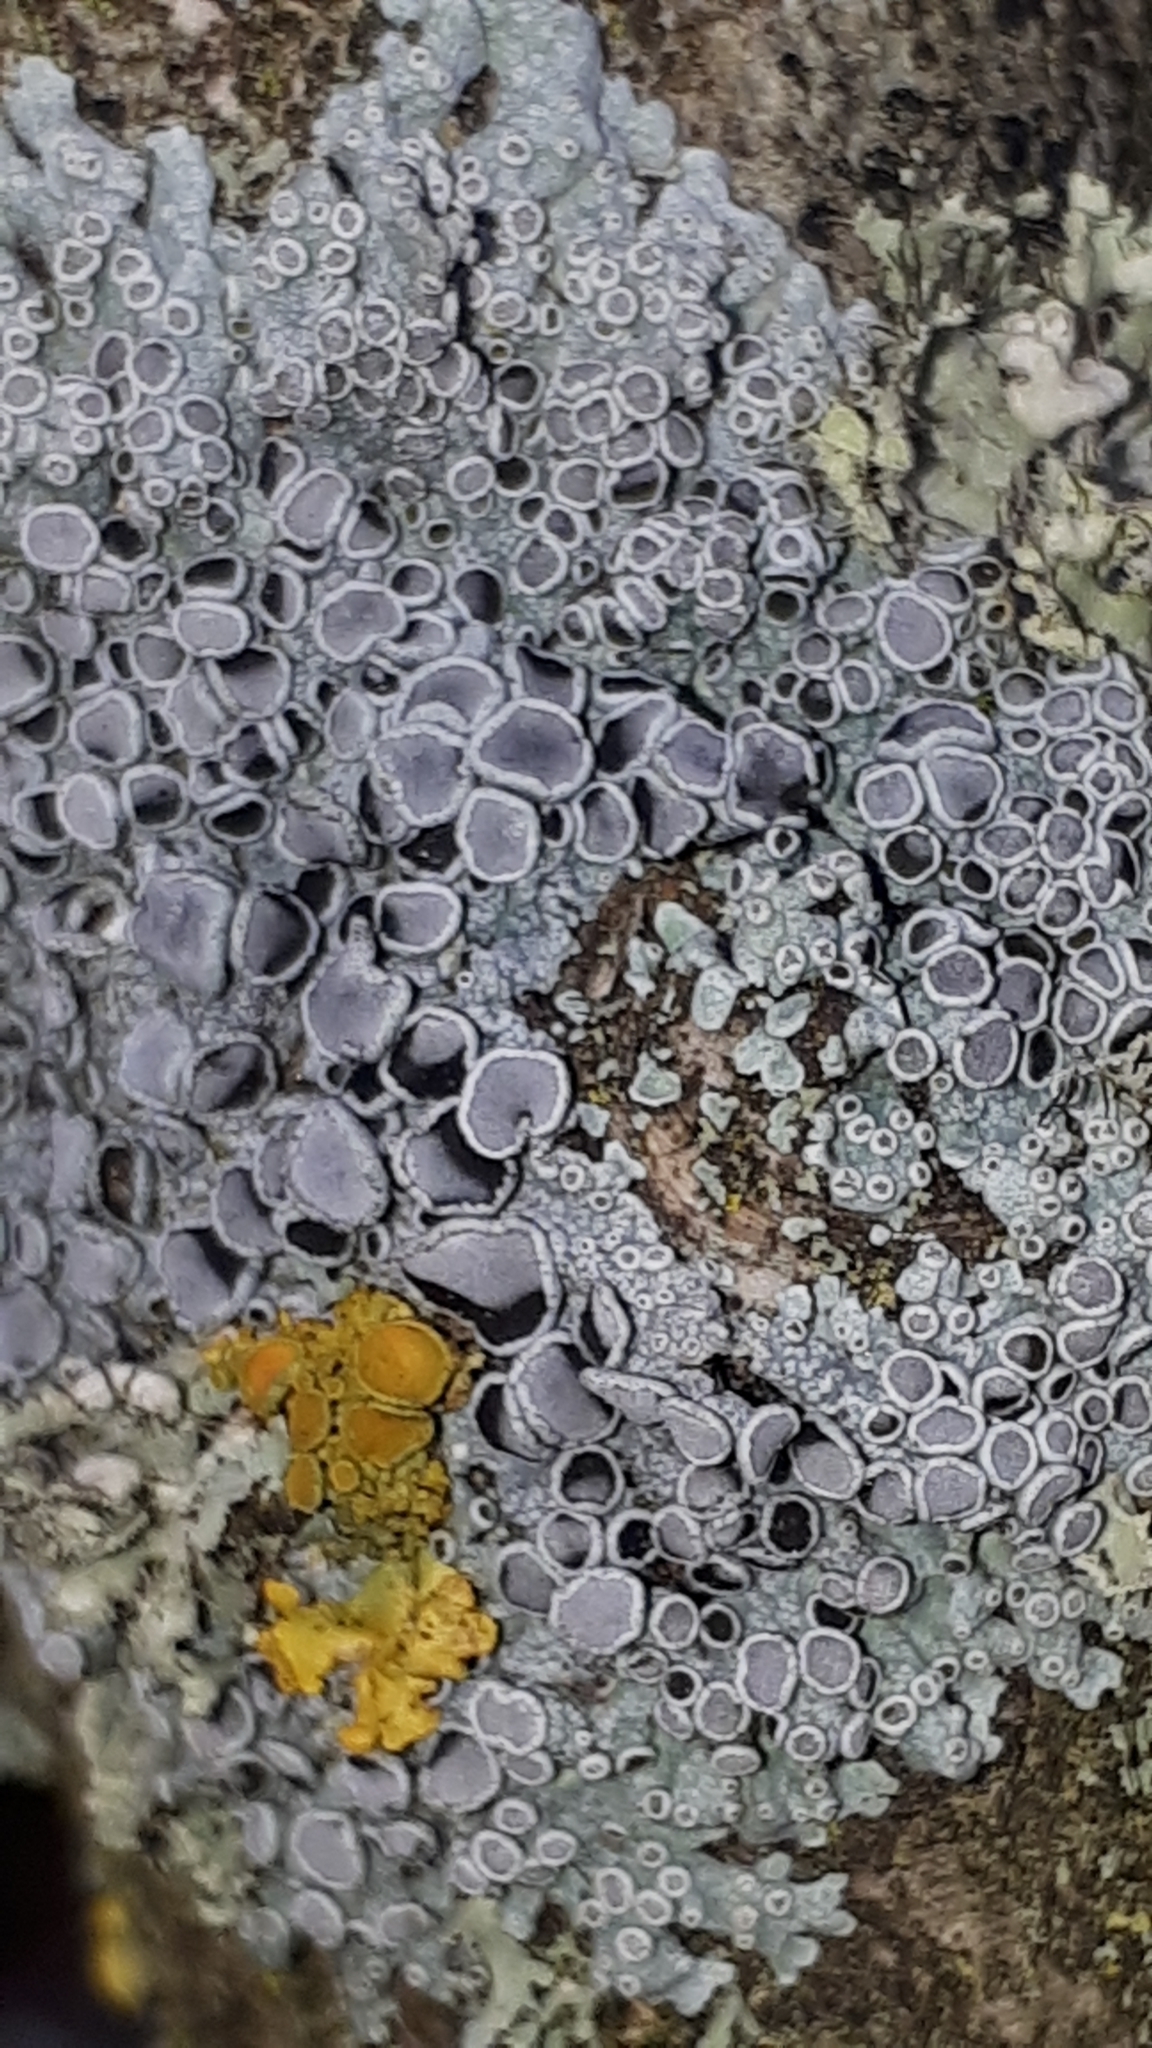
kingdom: Fungi
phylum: Ascomycota
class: Lecanoromycetes
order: Caliciales
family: Physciaceae
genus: Physcia
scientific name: Physcia aipolia
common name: Hoary rosette lichen
